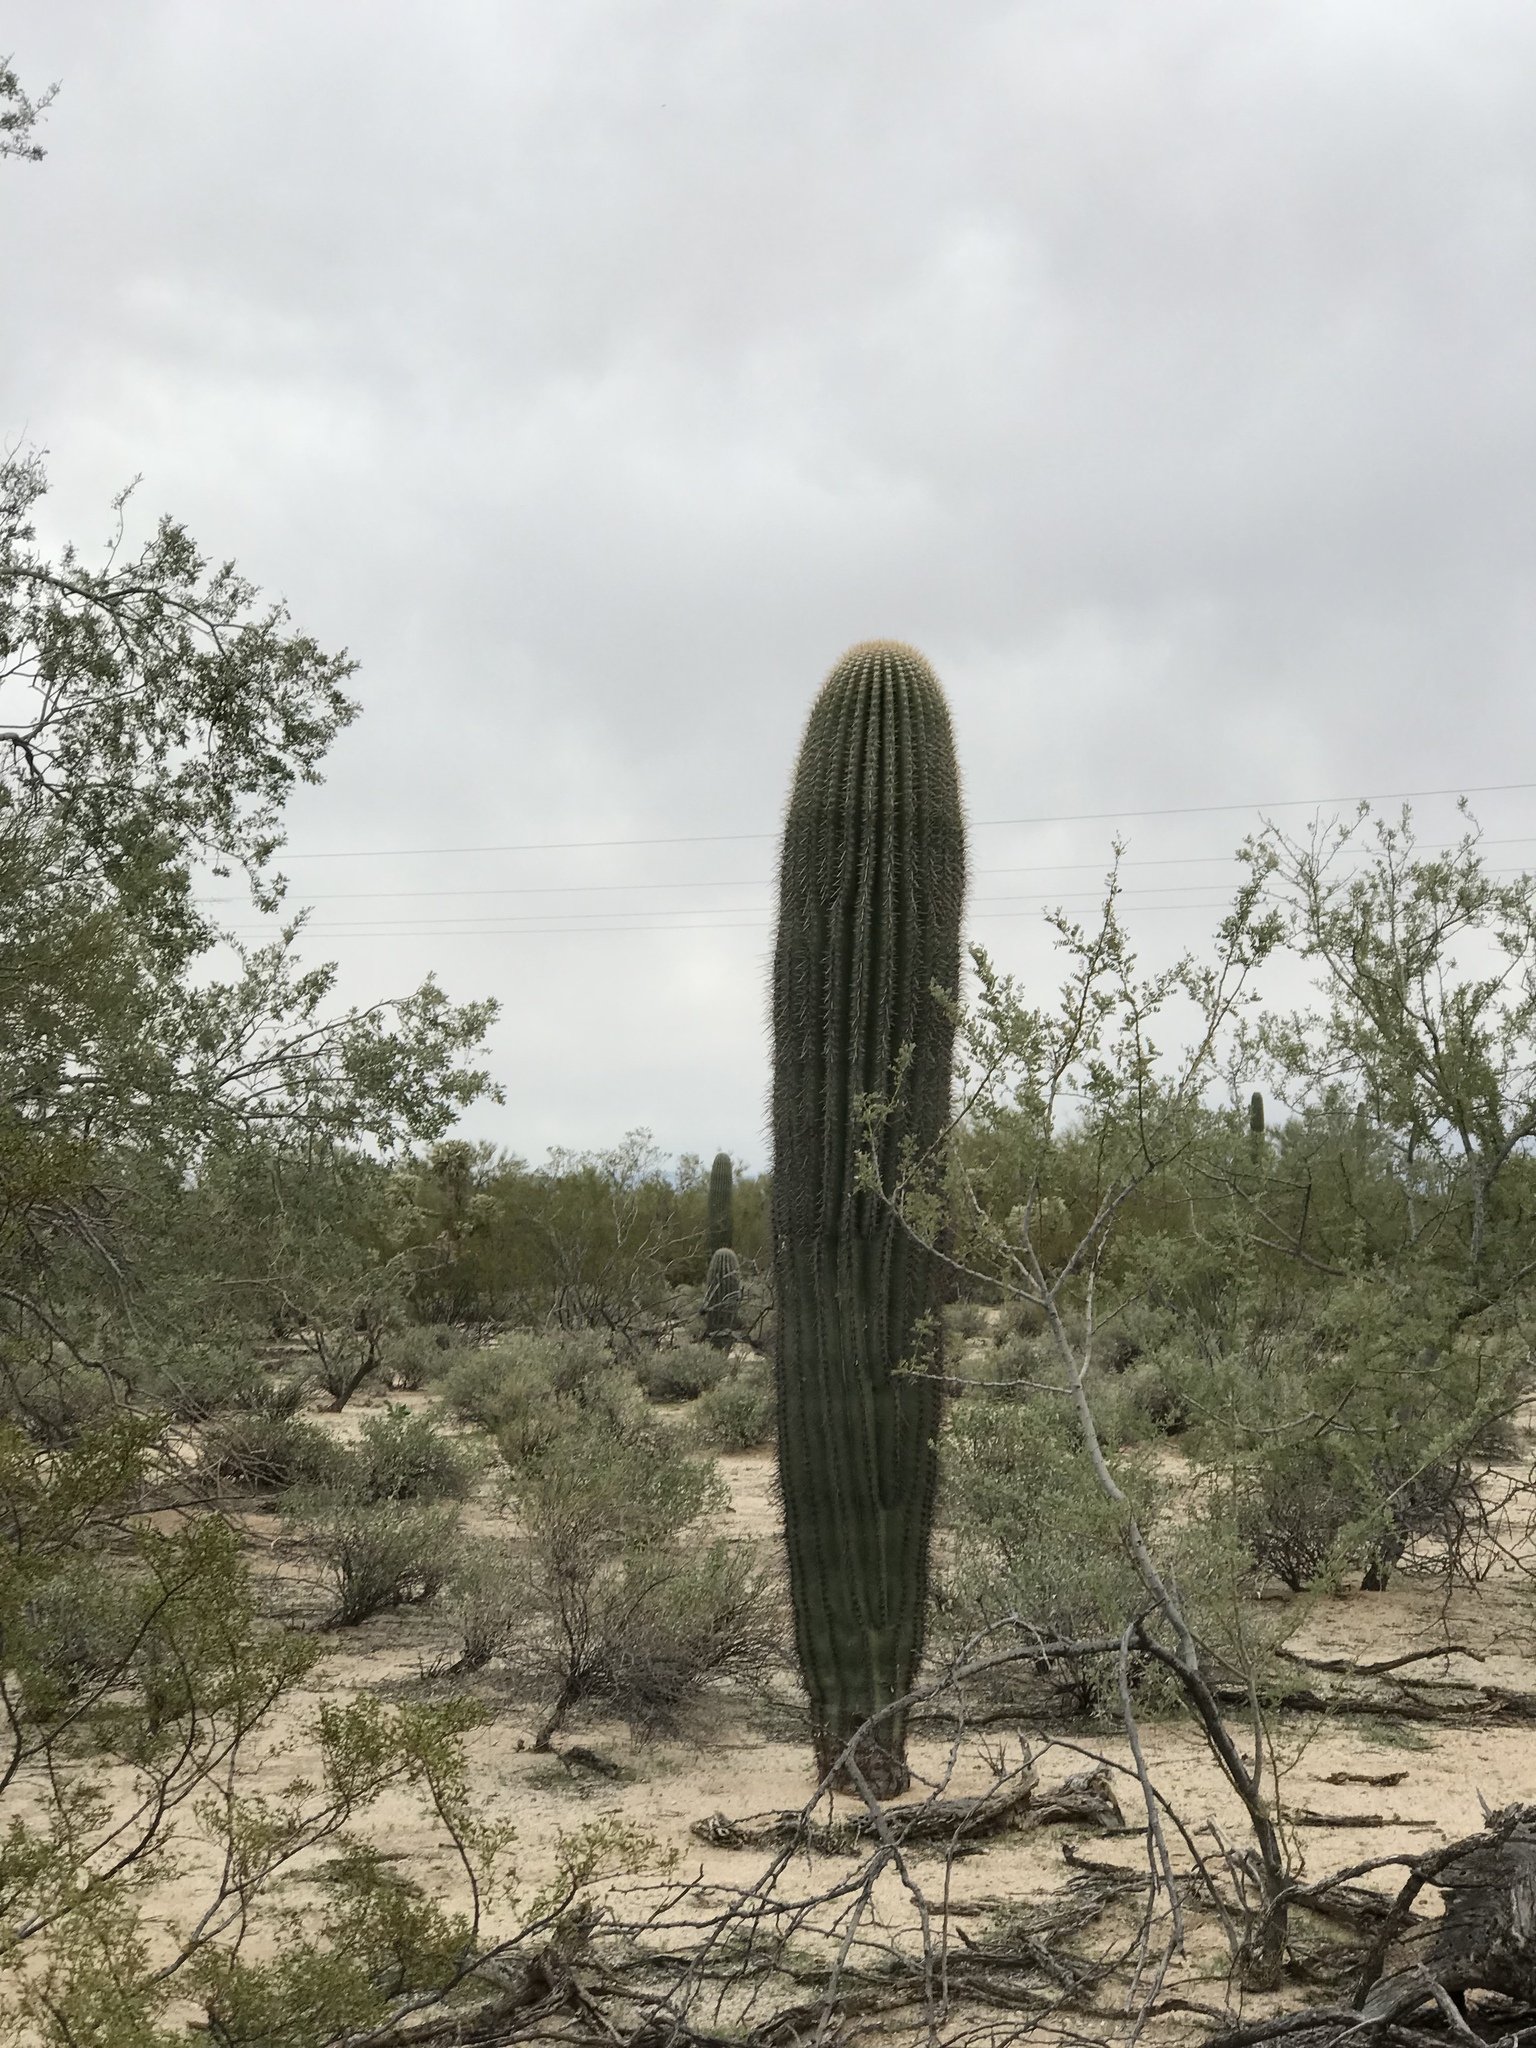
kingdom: Plantae
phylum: Tracheophyta
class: Magnoliopsida
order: Caryophyllales
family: Cactaceae
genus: Carnegiea
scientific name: Carnegiea gigantea
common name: Saguaro
